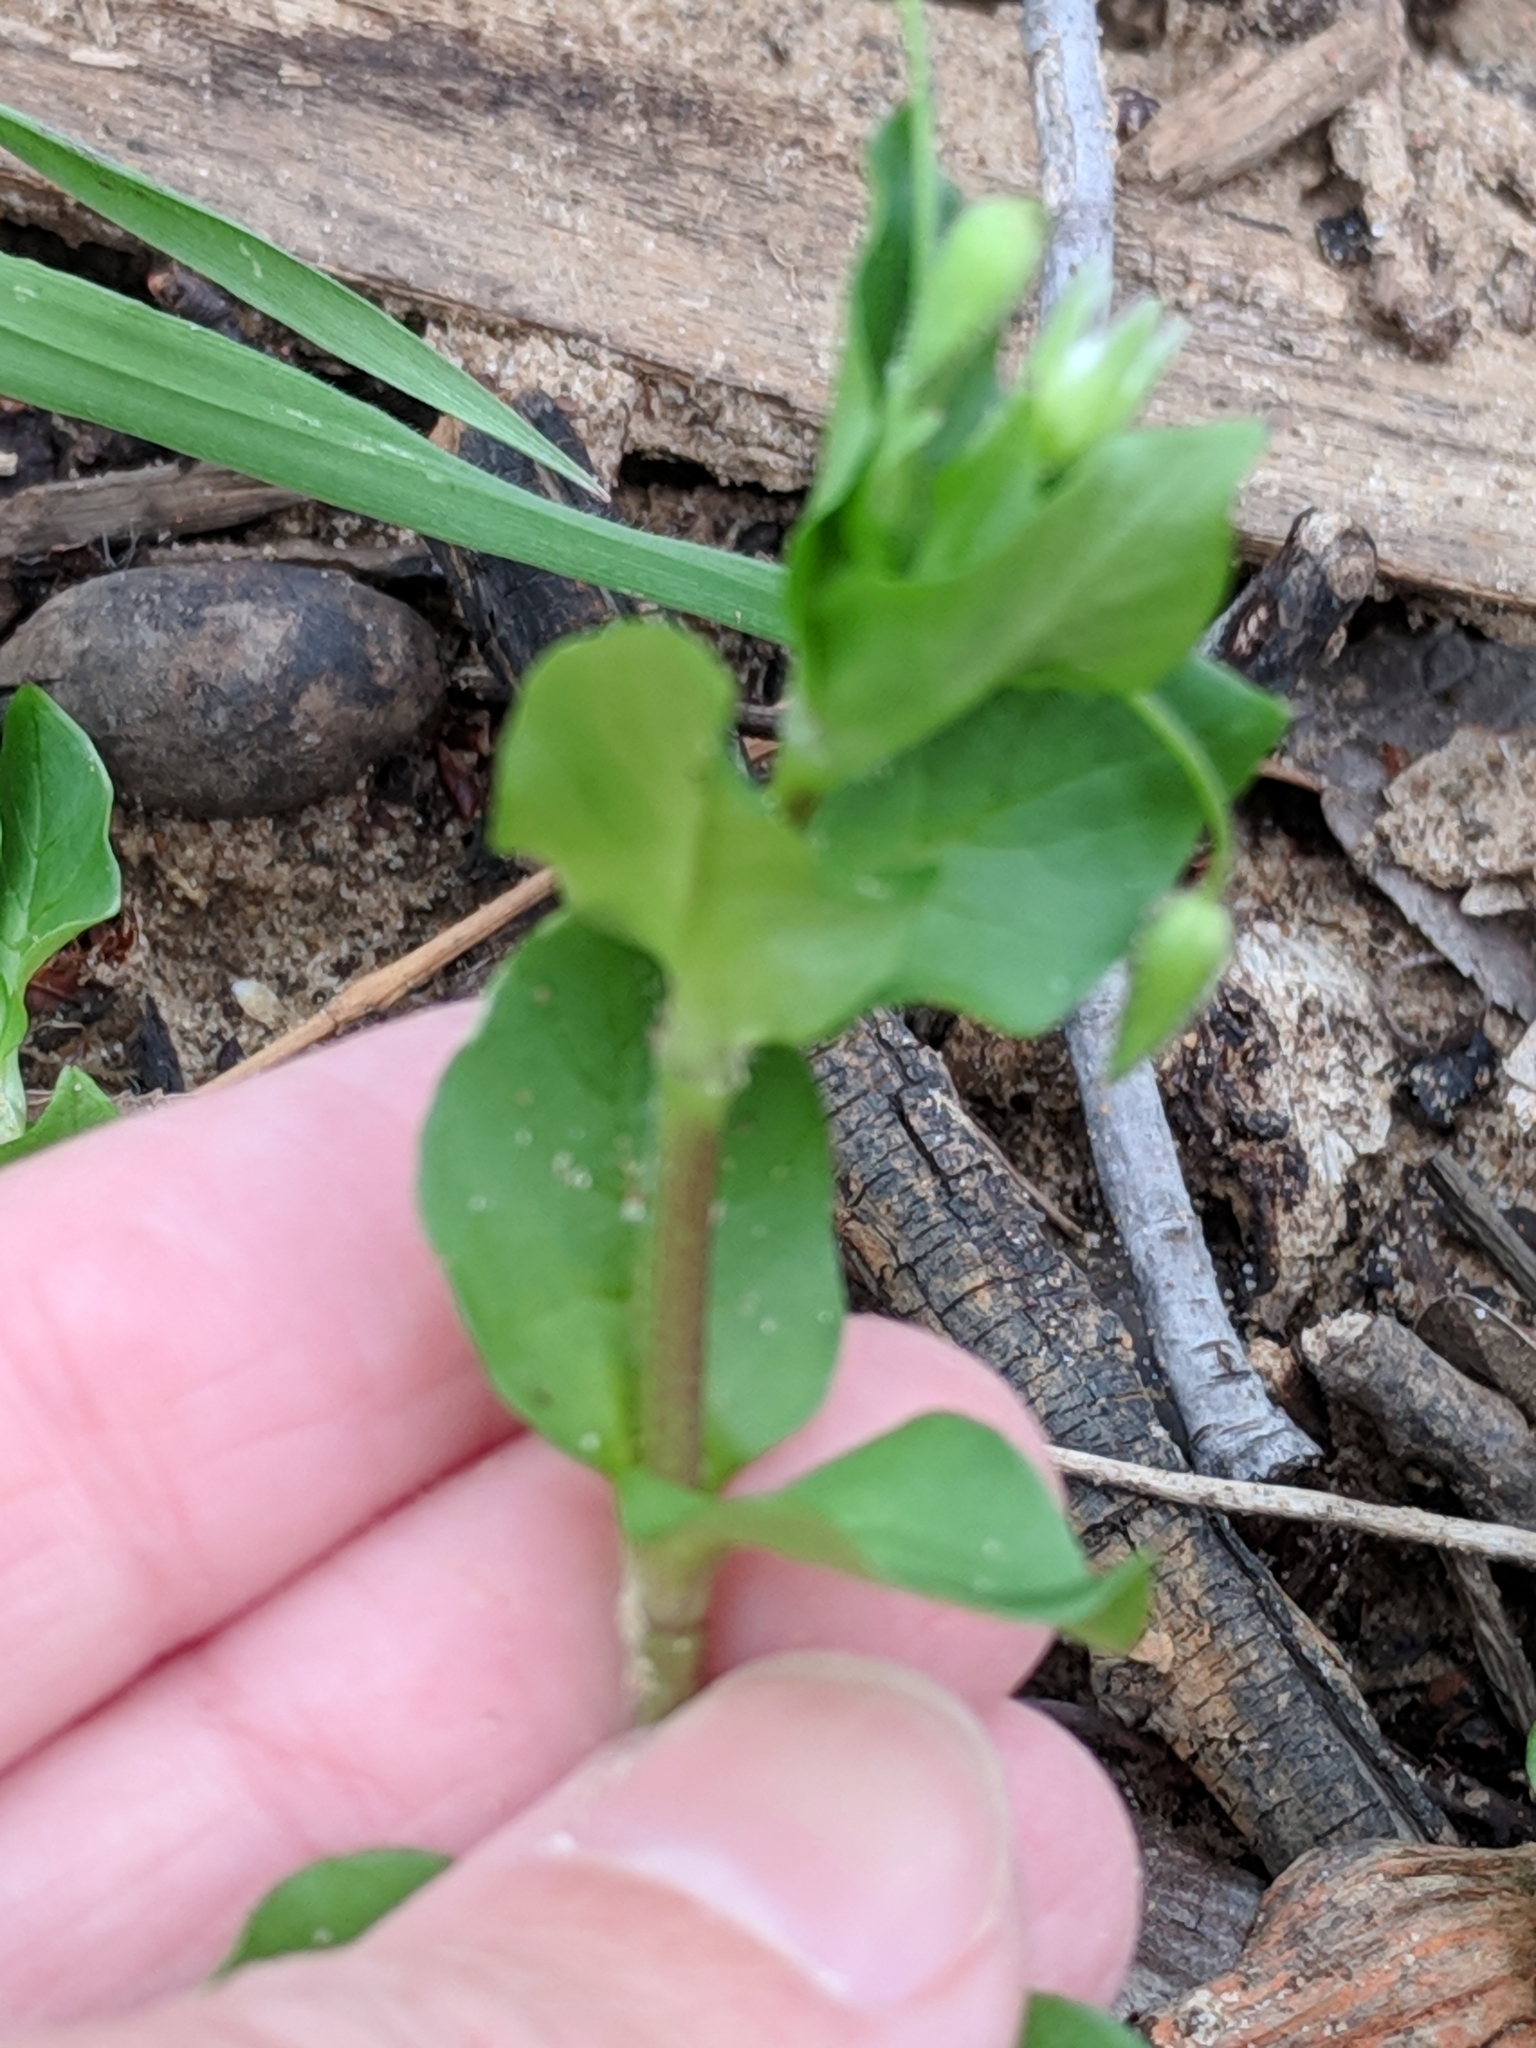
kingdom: Plantae
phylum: Tracheophyta
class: Magnoliopsida
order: Caryophyllales
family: Caryophyllaceae
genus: Stellaria
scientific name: Stellaria media
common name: Common chickweed
